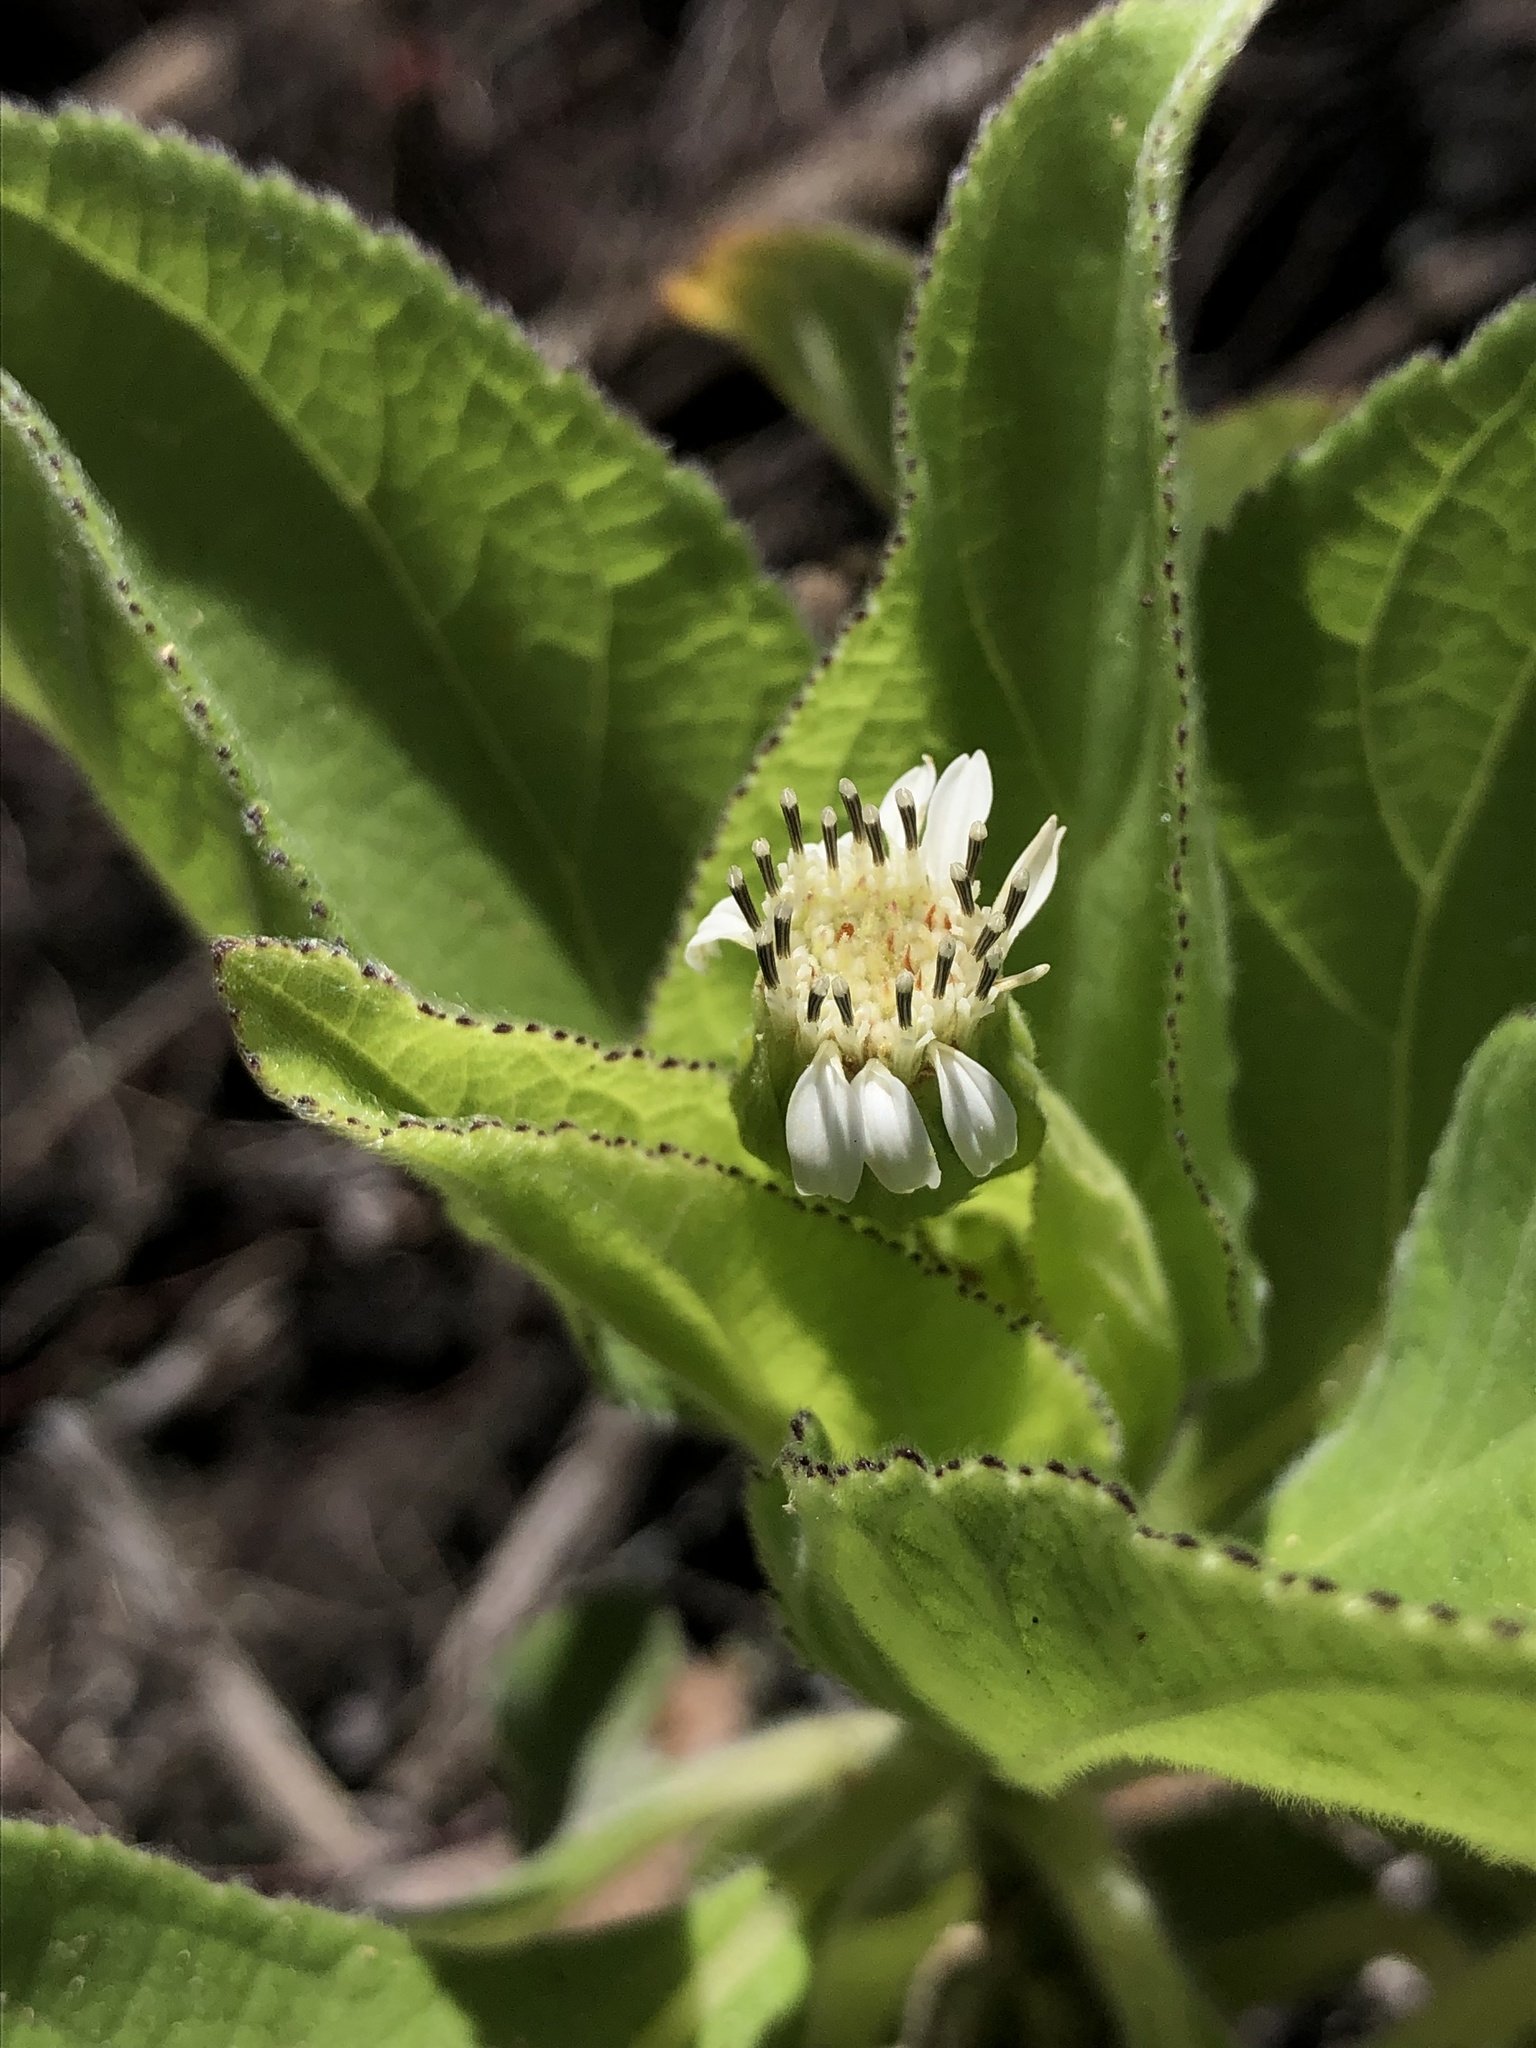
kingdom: Plantae
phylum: Tracheophyta
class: Magnoliopsida
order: Asterales
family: Asteraceae
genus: Scalesia
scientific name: Scalesia affinis
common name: Radiate-headed scalesia
